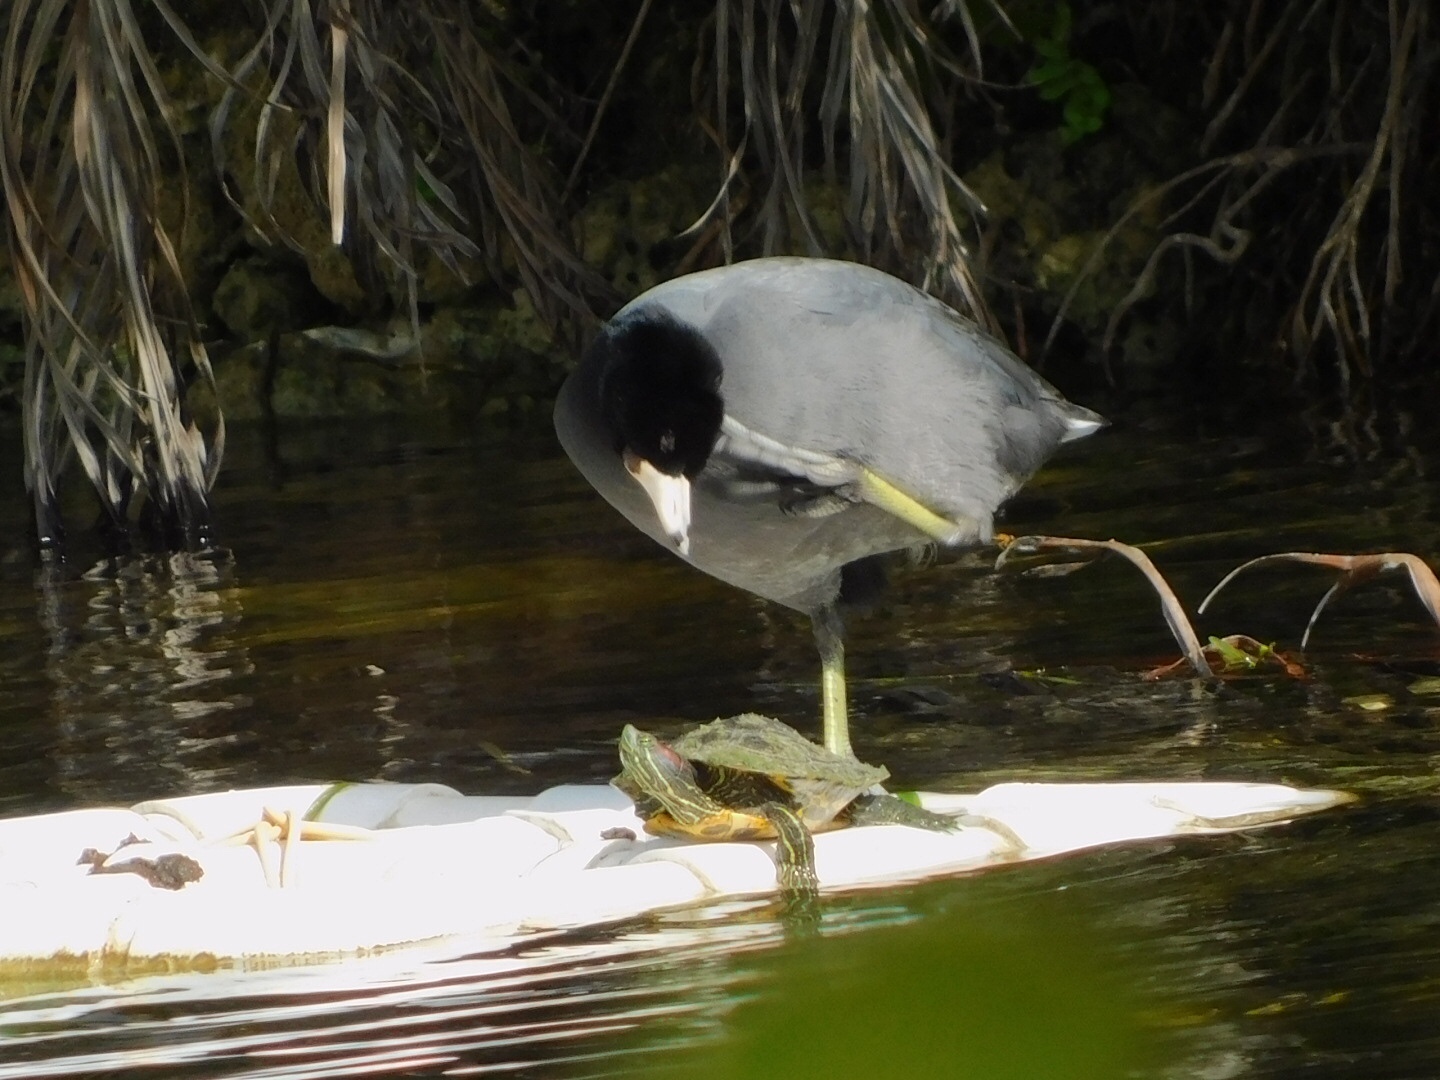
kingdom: Animalia
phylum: Chordata
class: Aves
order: Gruiformes
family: Rallidae
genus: Fulica
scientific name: Fulica americana
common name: American coot
